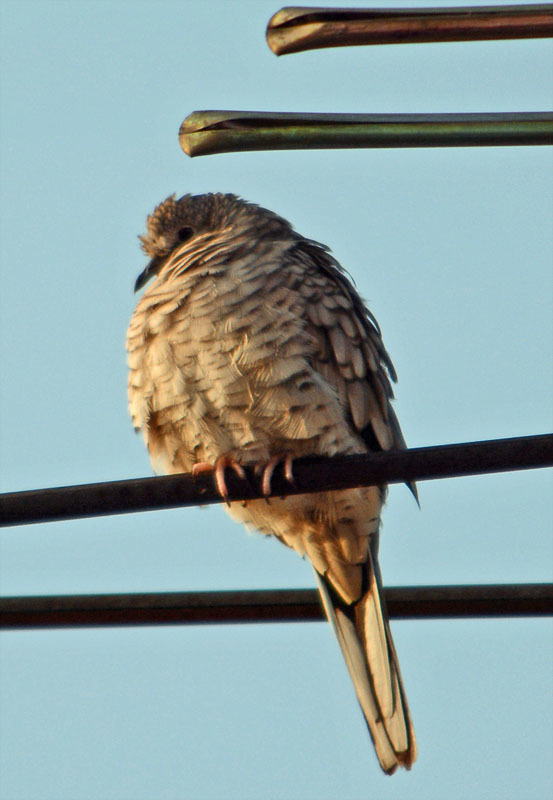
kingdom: Animalia
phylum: Chordata
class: Aves
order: Columbiformes
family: Columbidae
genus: Columbina
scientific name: Columbina inca
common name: Inca dove
